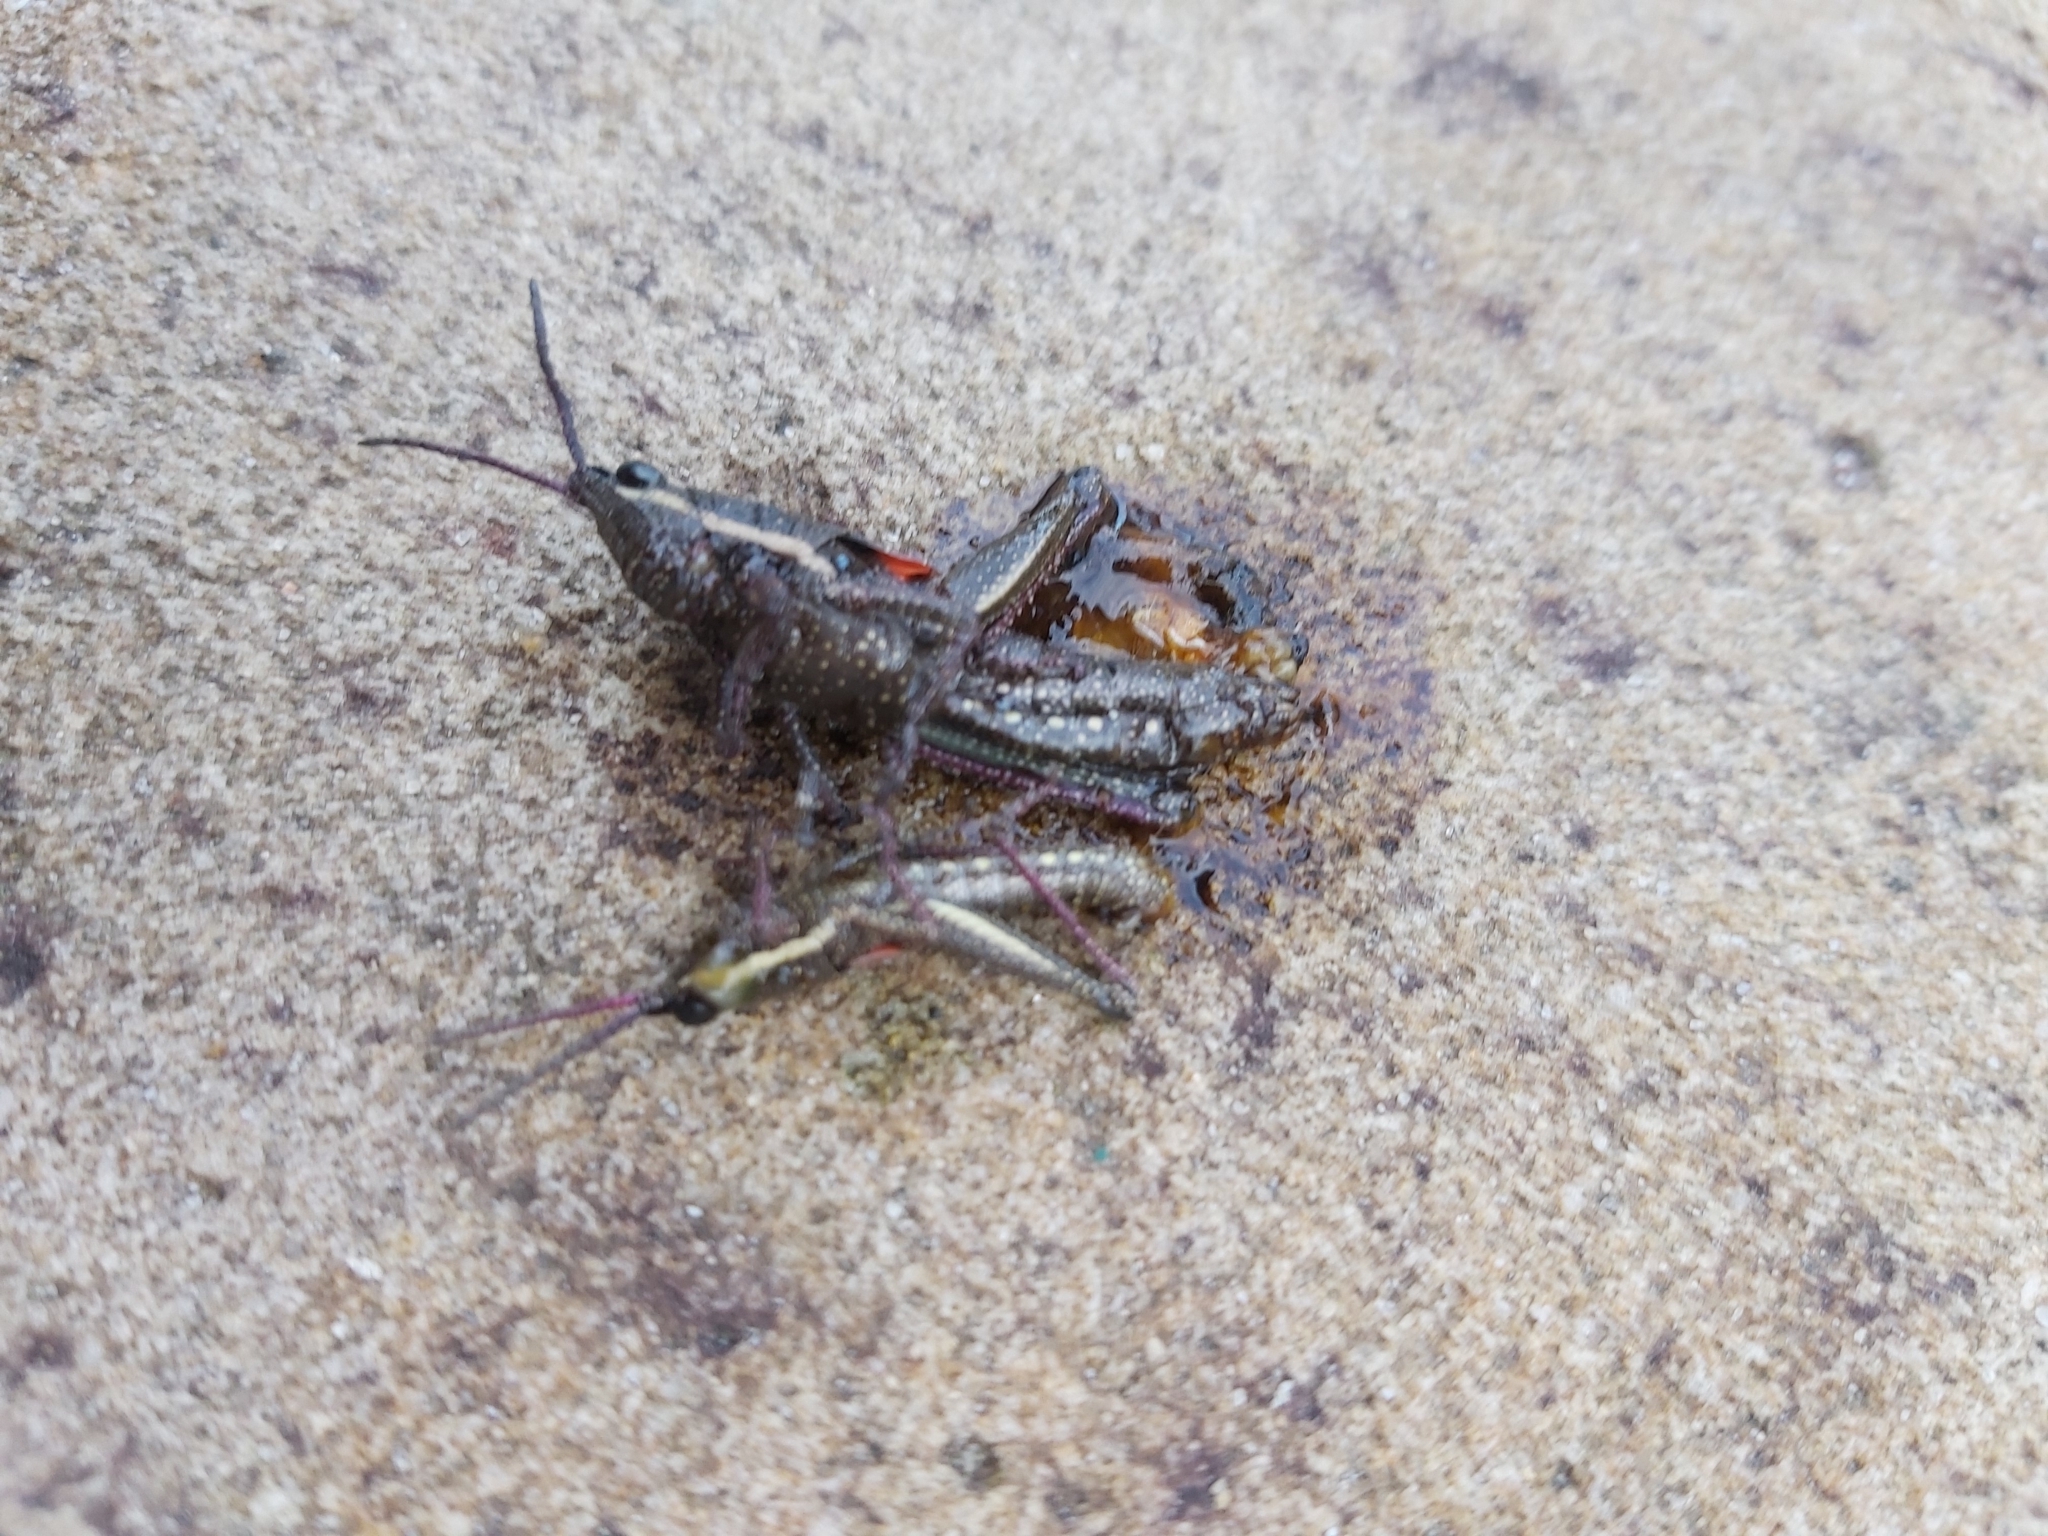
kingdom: Animalia
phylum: Arthropoda
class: Insecta
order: Orthoptera
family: Pyrgomorphidae
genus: Monistria
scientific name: Monistria discrepans
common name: Common pyrgomorph
